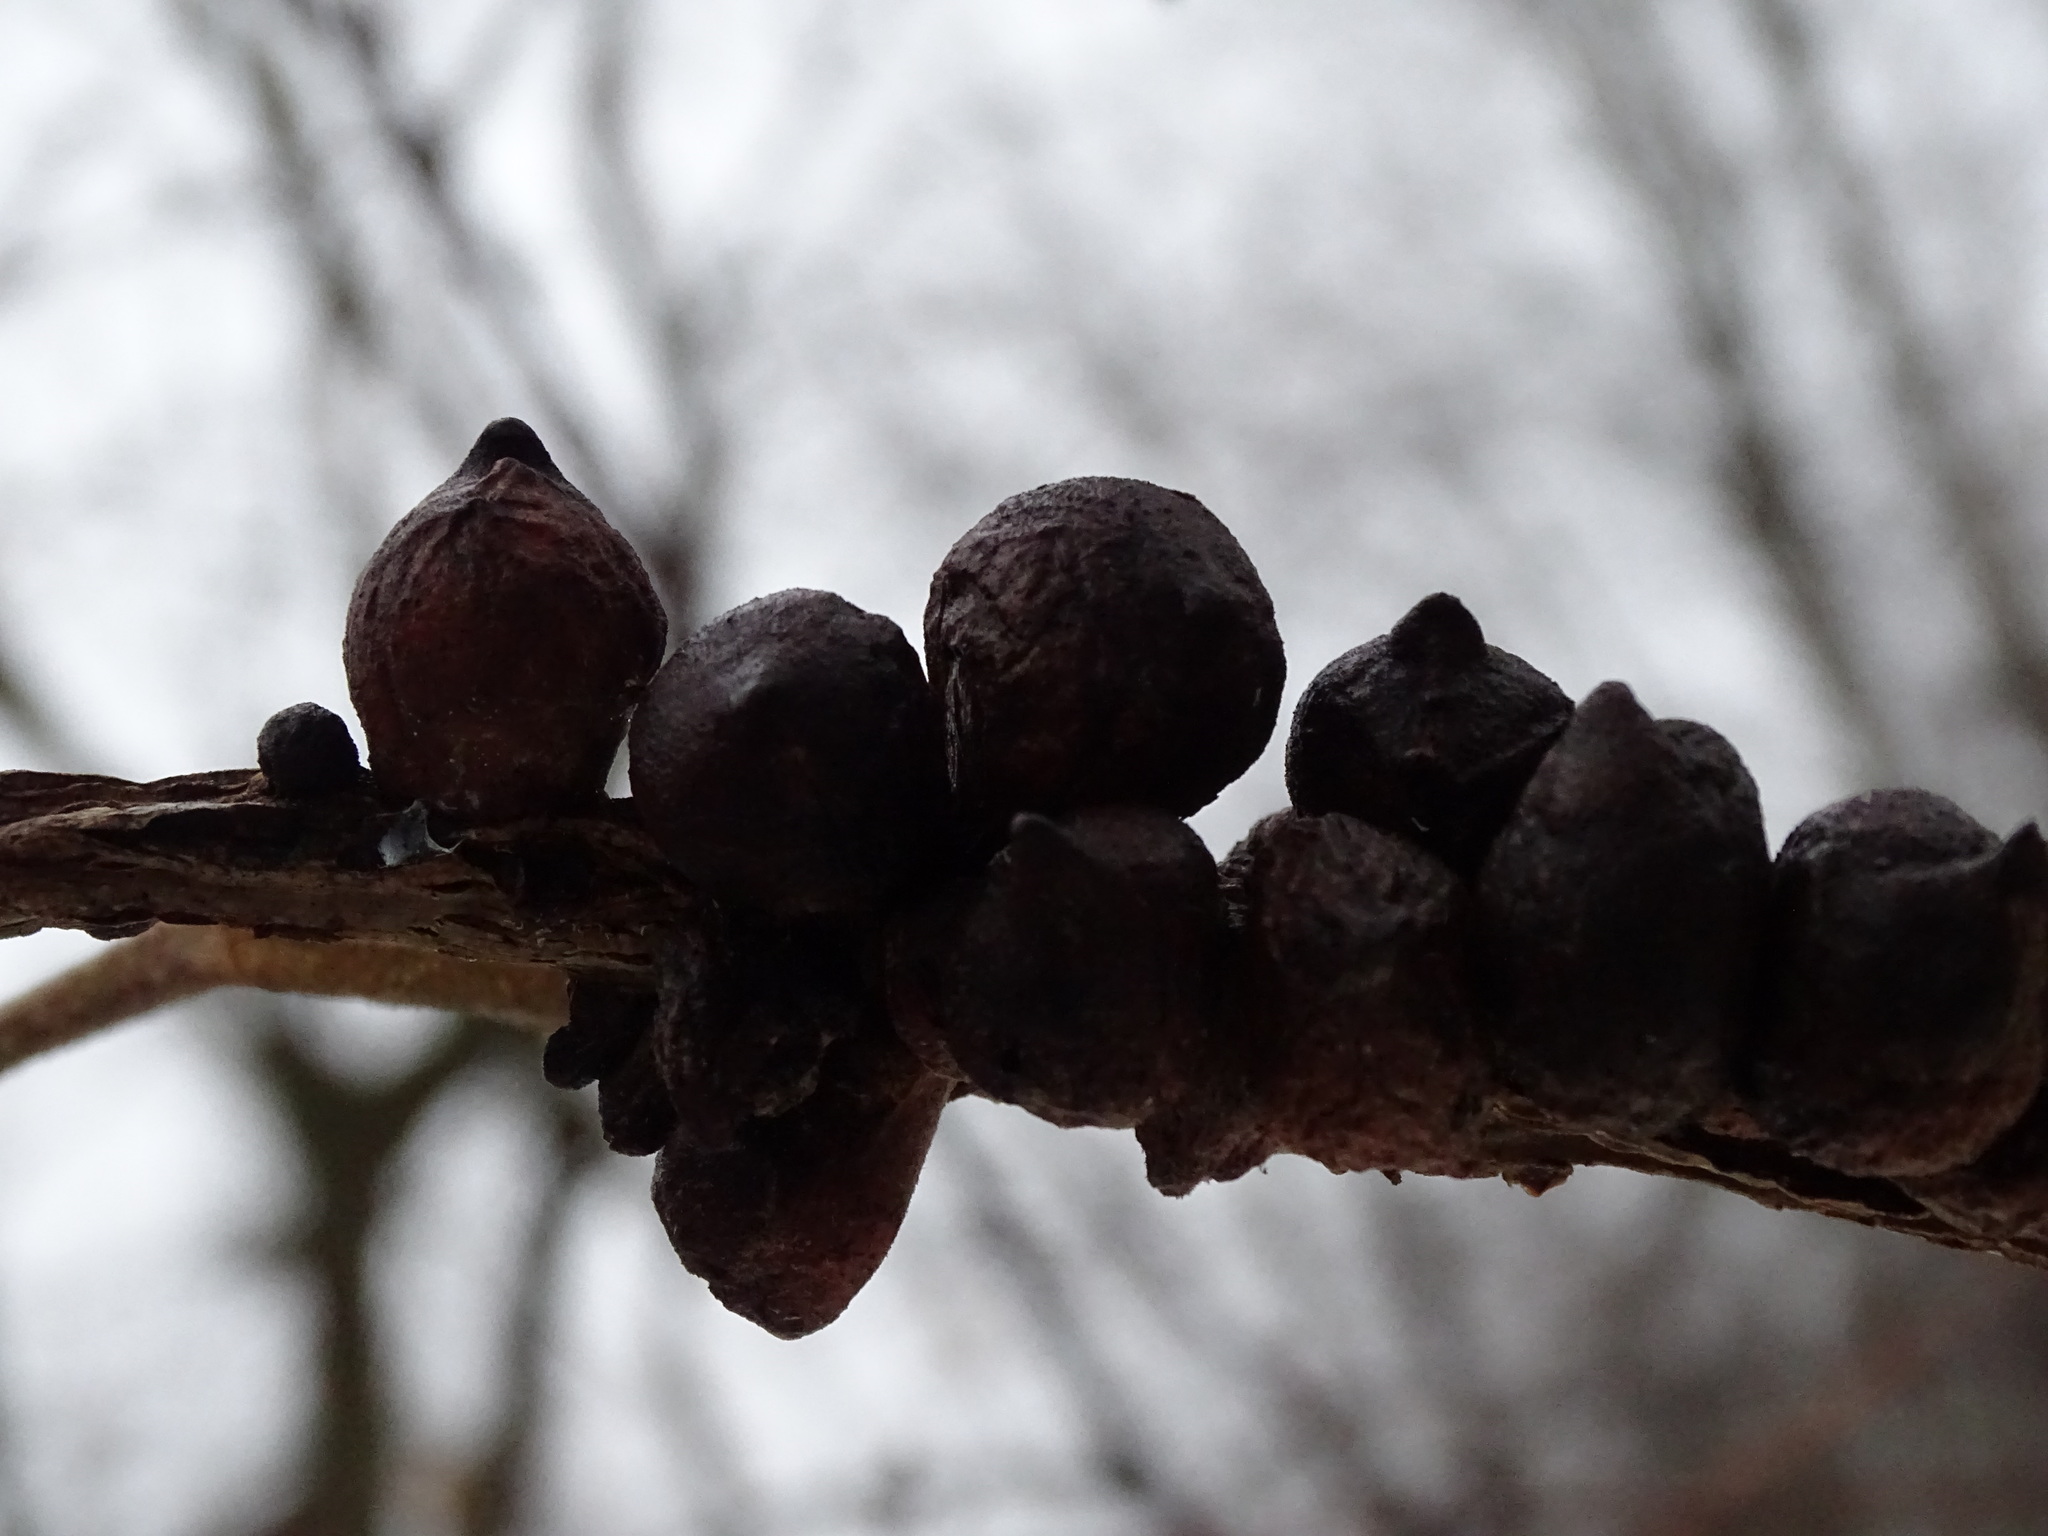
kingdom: Animalia
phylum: Arthropoda
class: Insecta
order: Hymenoptera
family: Cynipidae
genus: Disholcaspis
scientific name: Disholcaspis
